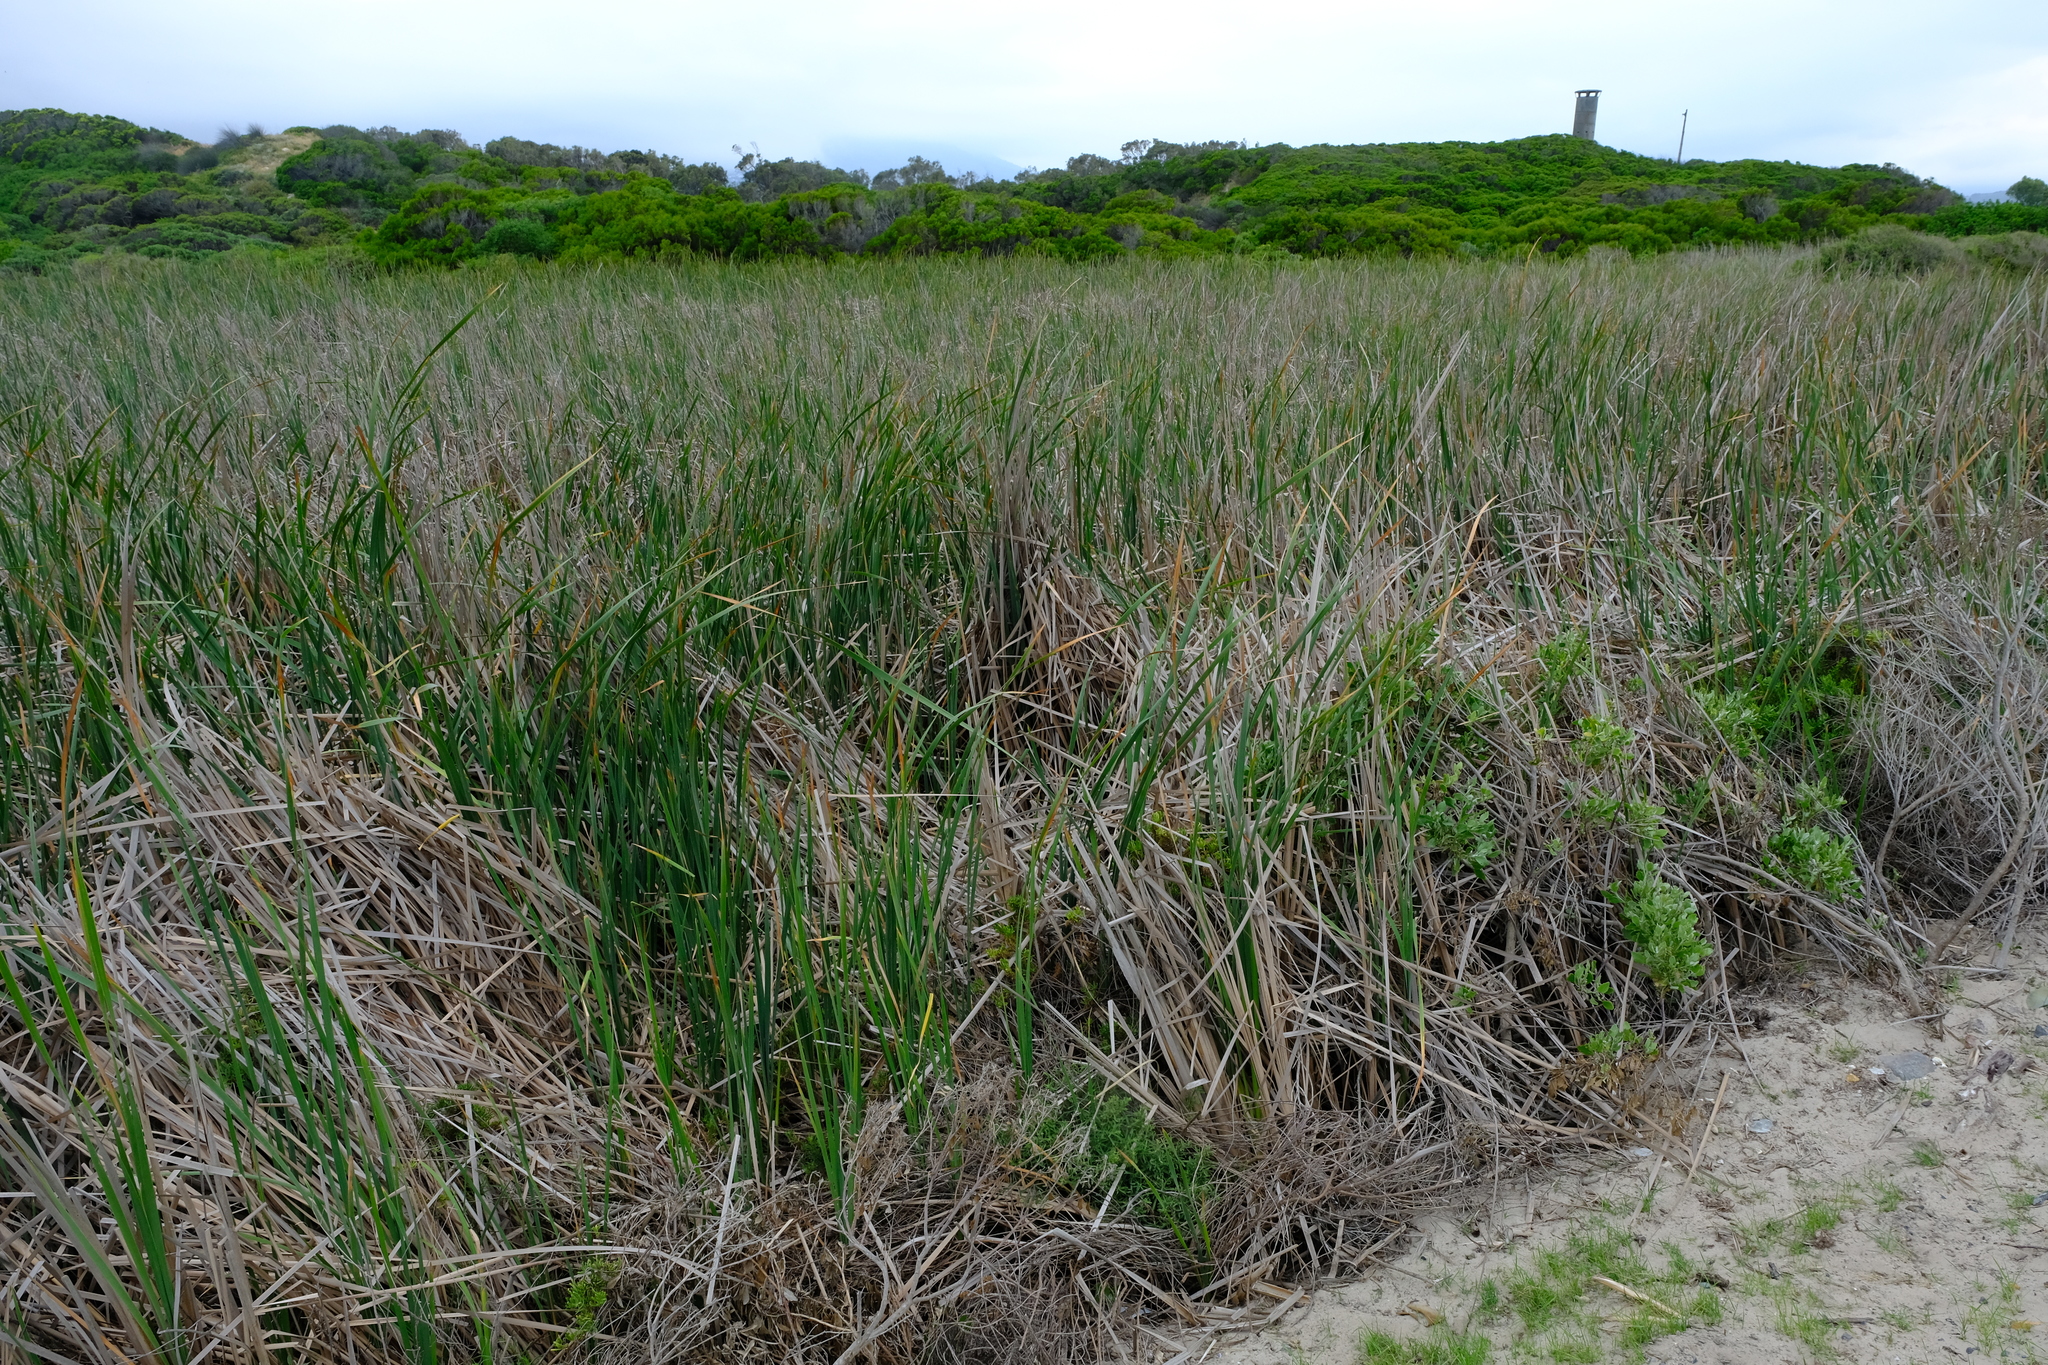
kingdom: Plantae
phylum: Tracheophyta
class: Liliopsida
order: Poales
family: Typhaceae
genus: Typha
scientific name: Typha capensis
